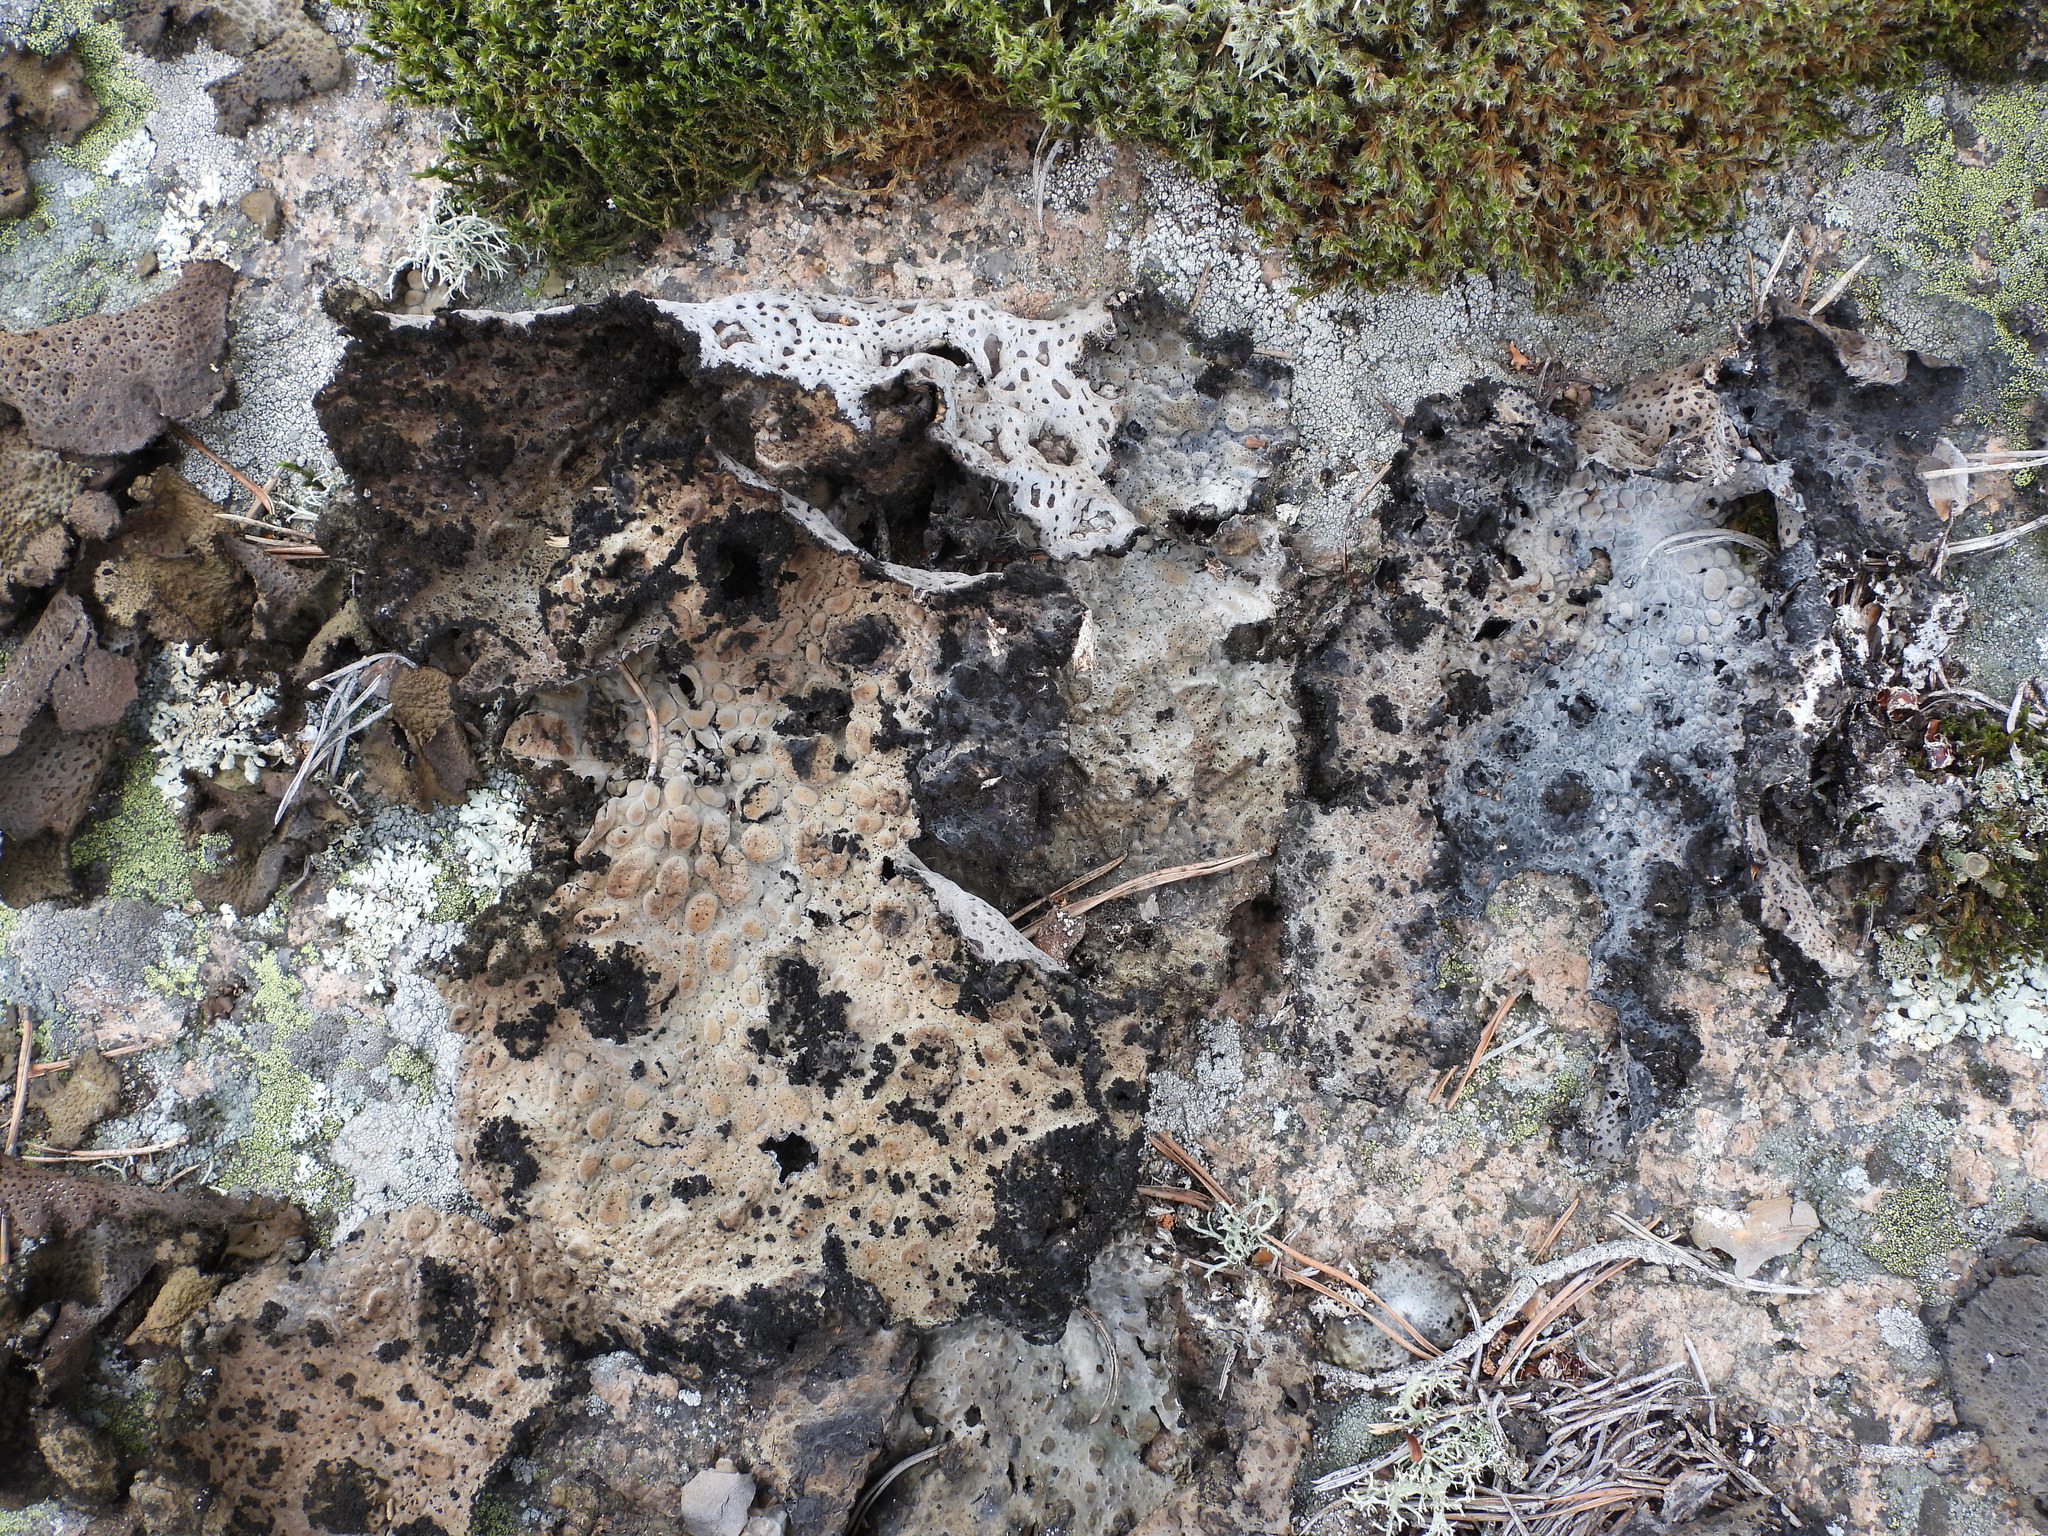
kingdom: Fungi
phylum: Ascomycota
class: Lecanoromycetes
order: Umbilicariales
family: Umbilicariaceae
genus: Lasallia
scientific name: Lasallia pustulata
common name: Blistered toadskin lichen
